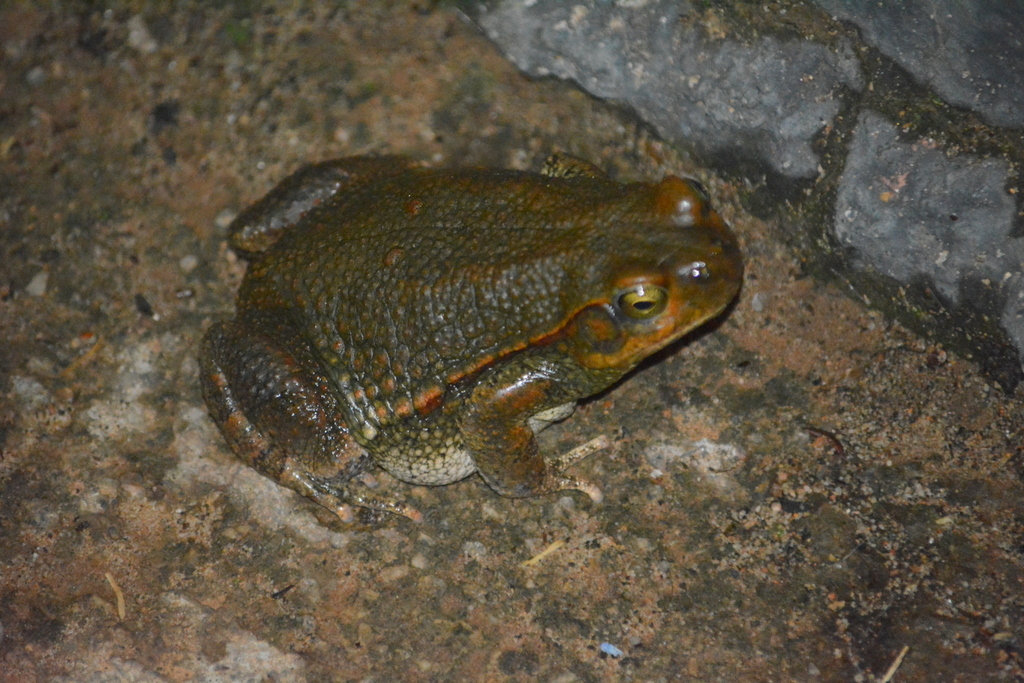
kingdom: Animalia
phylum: Chordata
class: Amphibia
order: Anura
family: Bufonidae
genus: Schismaderma
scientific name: Schismaderma carens
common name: African split-skin toad
